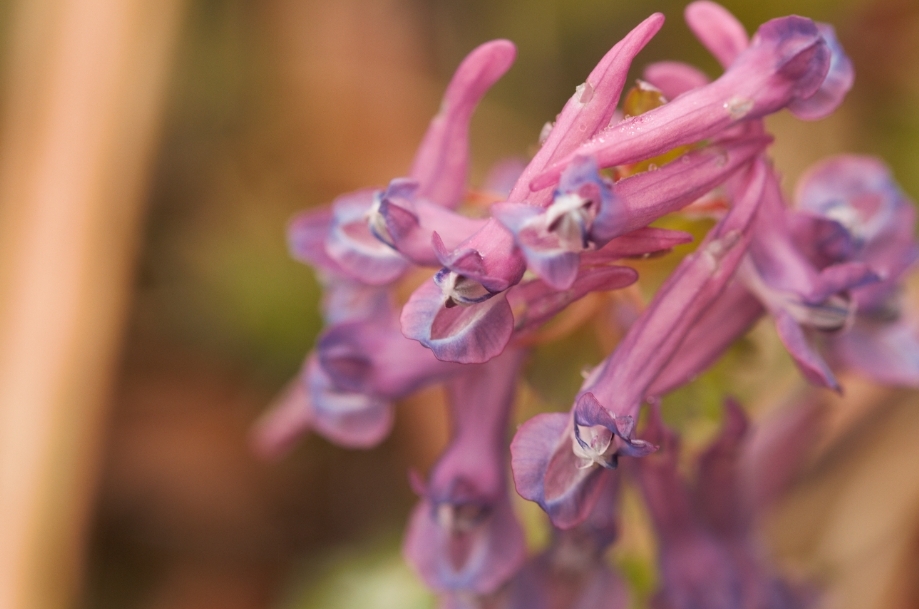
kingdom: Plantae
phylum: Tracheophyta
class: Magnoliopsida
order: Ranunculales
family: Papaveraceae
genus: Corydalis
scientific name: Corydalis solida
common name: Bird-in-a-bush
